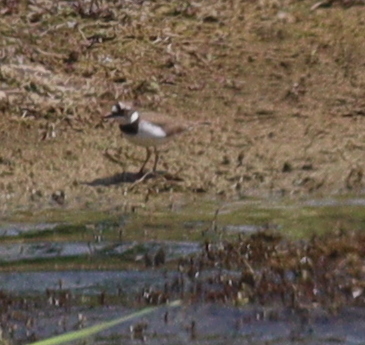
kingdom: Animalia
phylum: Chordata
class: Aves
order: Charadriiformes
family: Charadriidae
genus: Charadrius
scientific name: Charadrius dubius
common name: Little ringed plover
